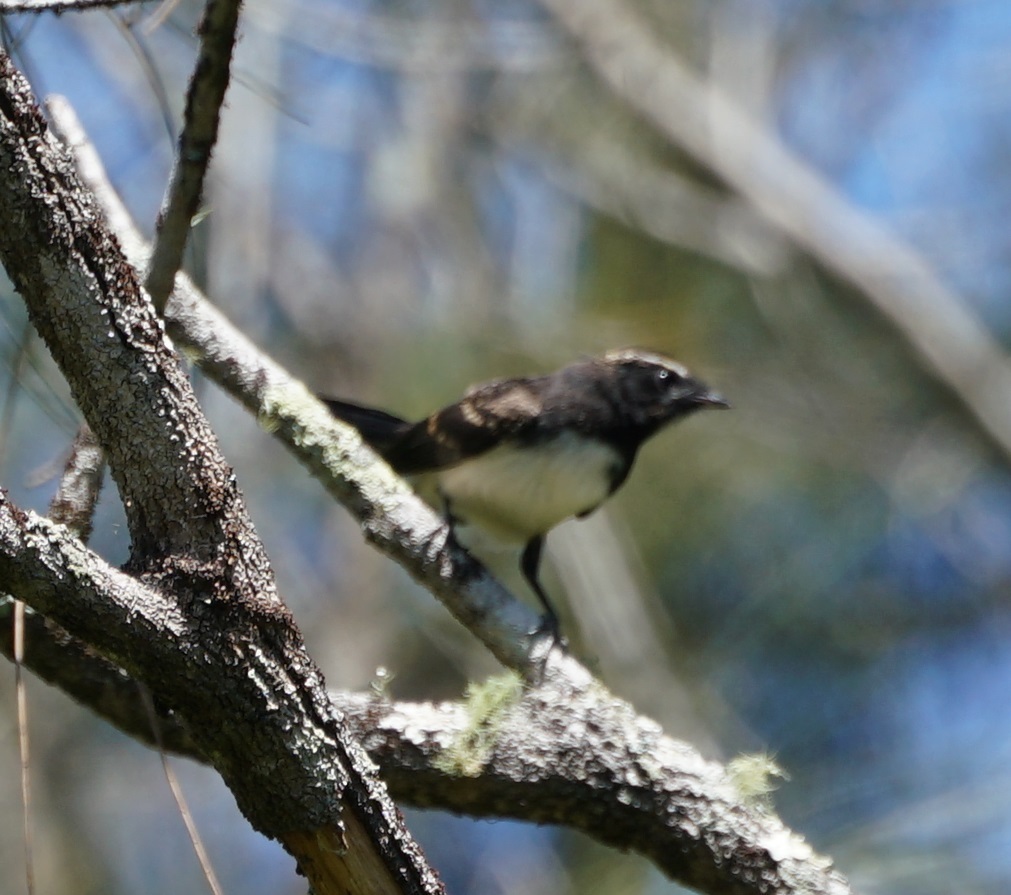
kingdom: Animalia
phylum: Chordata
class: Aves
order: Passeriformes
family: Rhipiduridae
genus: Rhipidura
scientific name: Rhipidura leucophrys
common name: Willie wagtail
